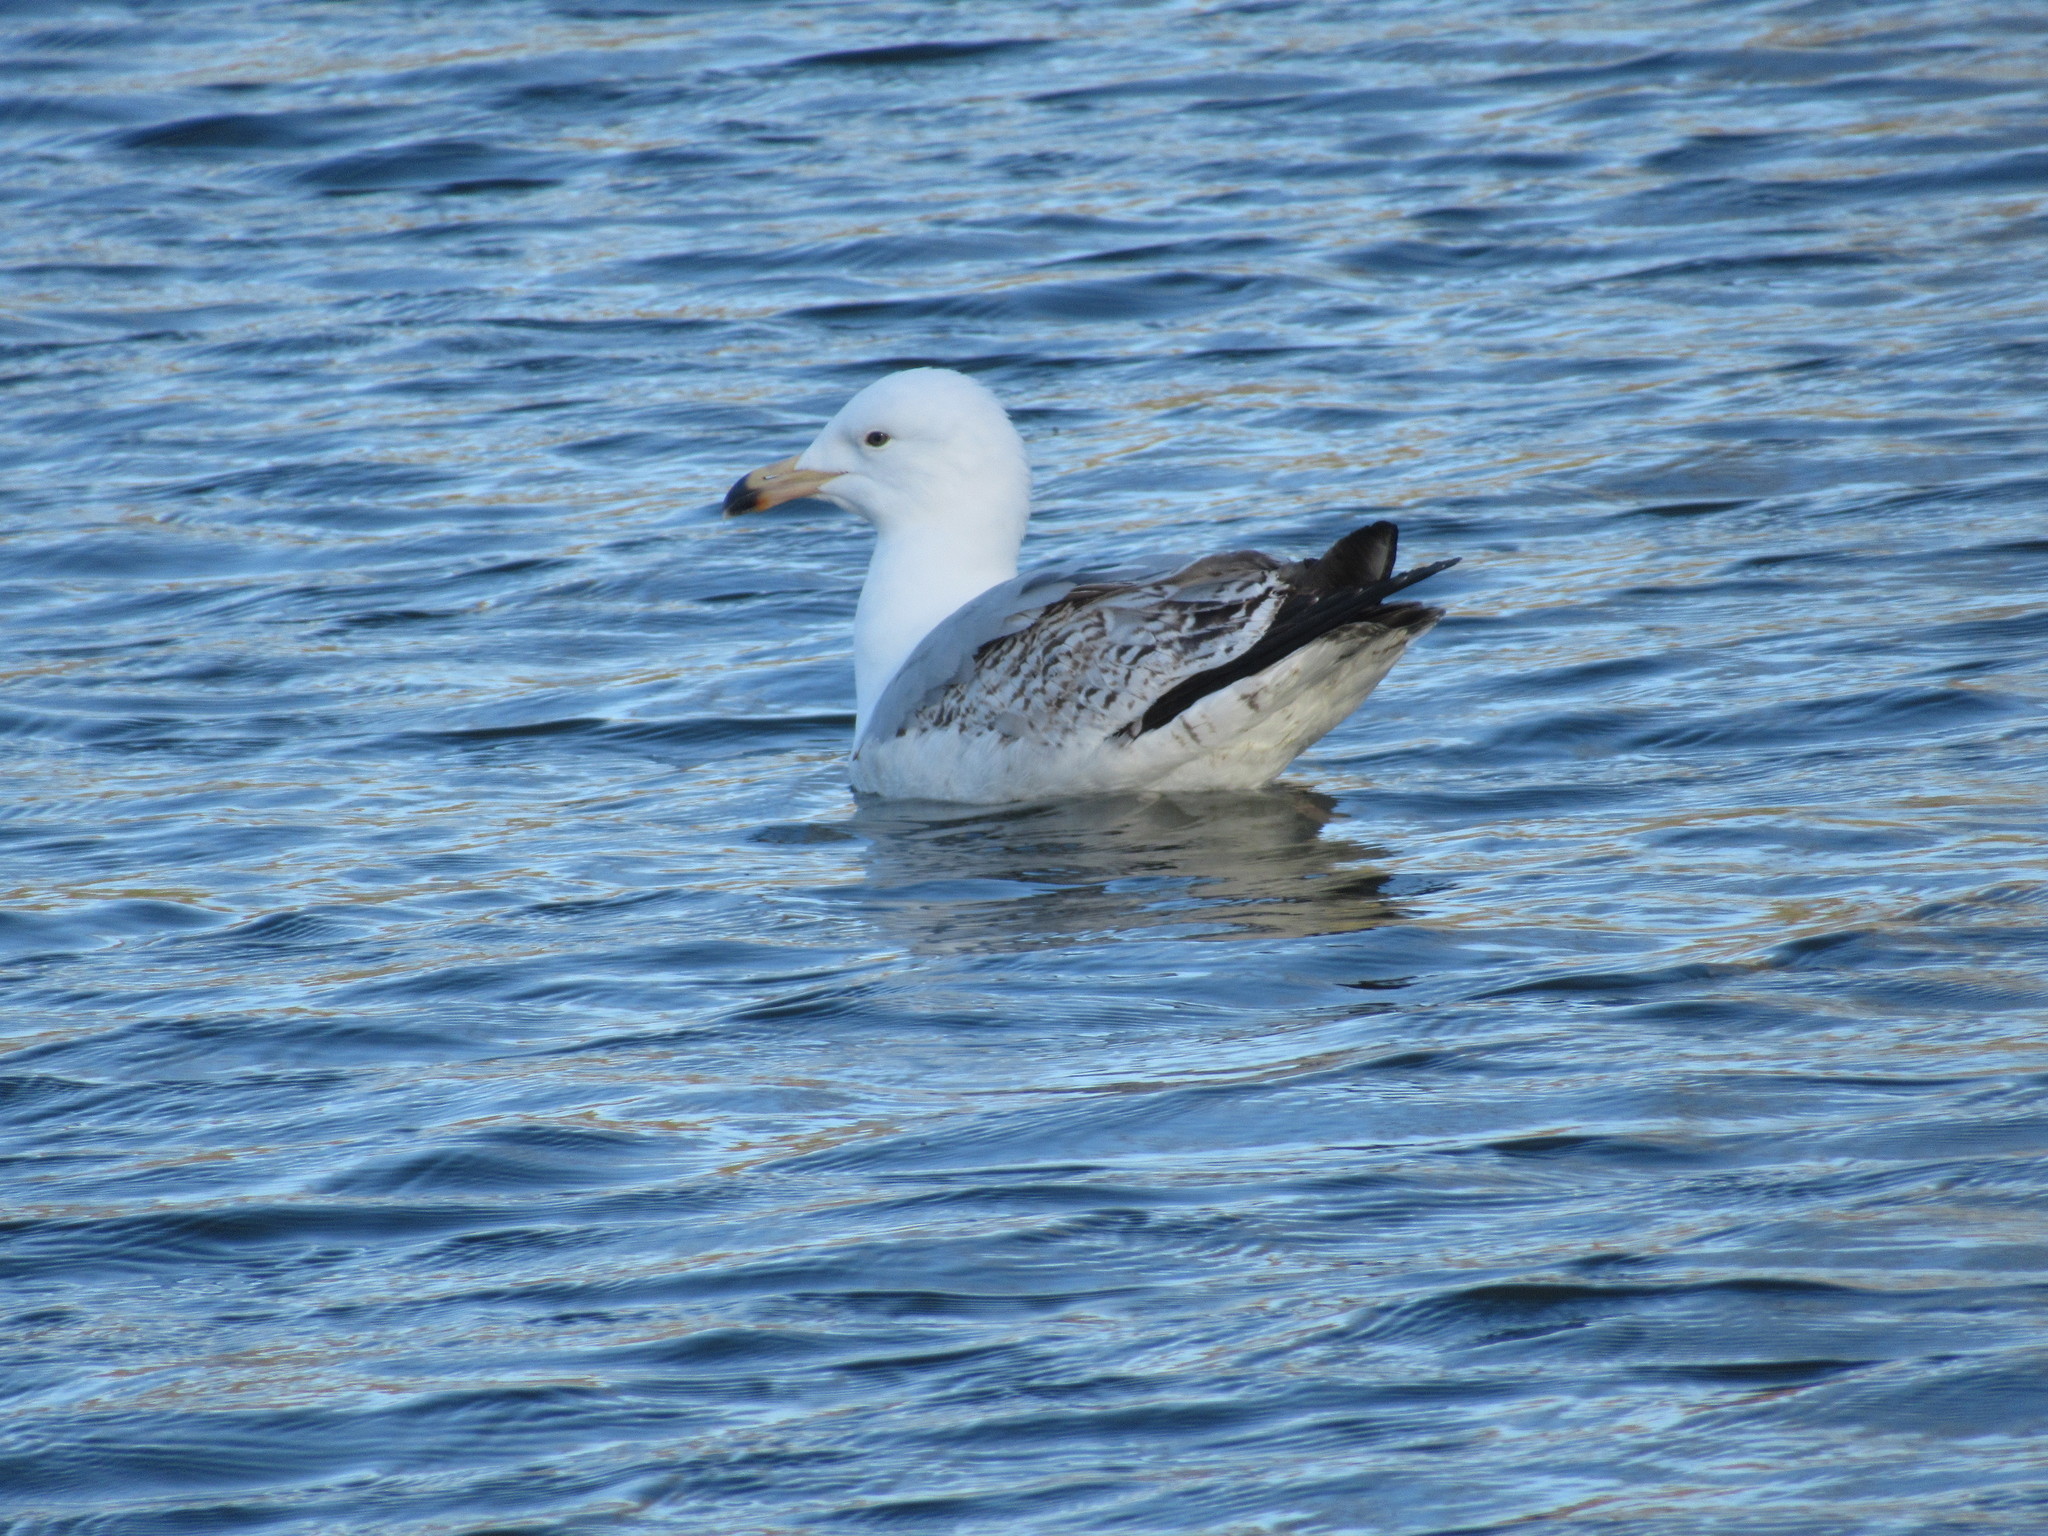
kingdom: Animalia
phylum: Chordata
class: Aves
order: Charadriiformes
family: Laridae
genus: Larus
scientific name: Larus canus
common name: Mew gull
